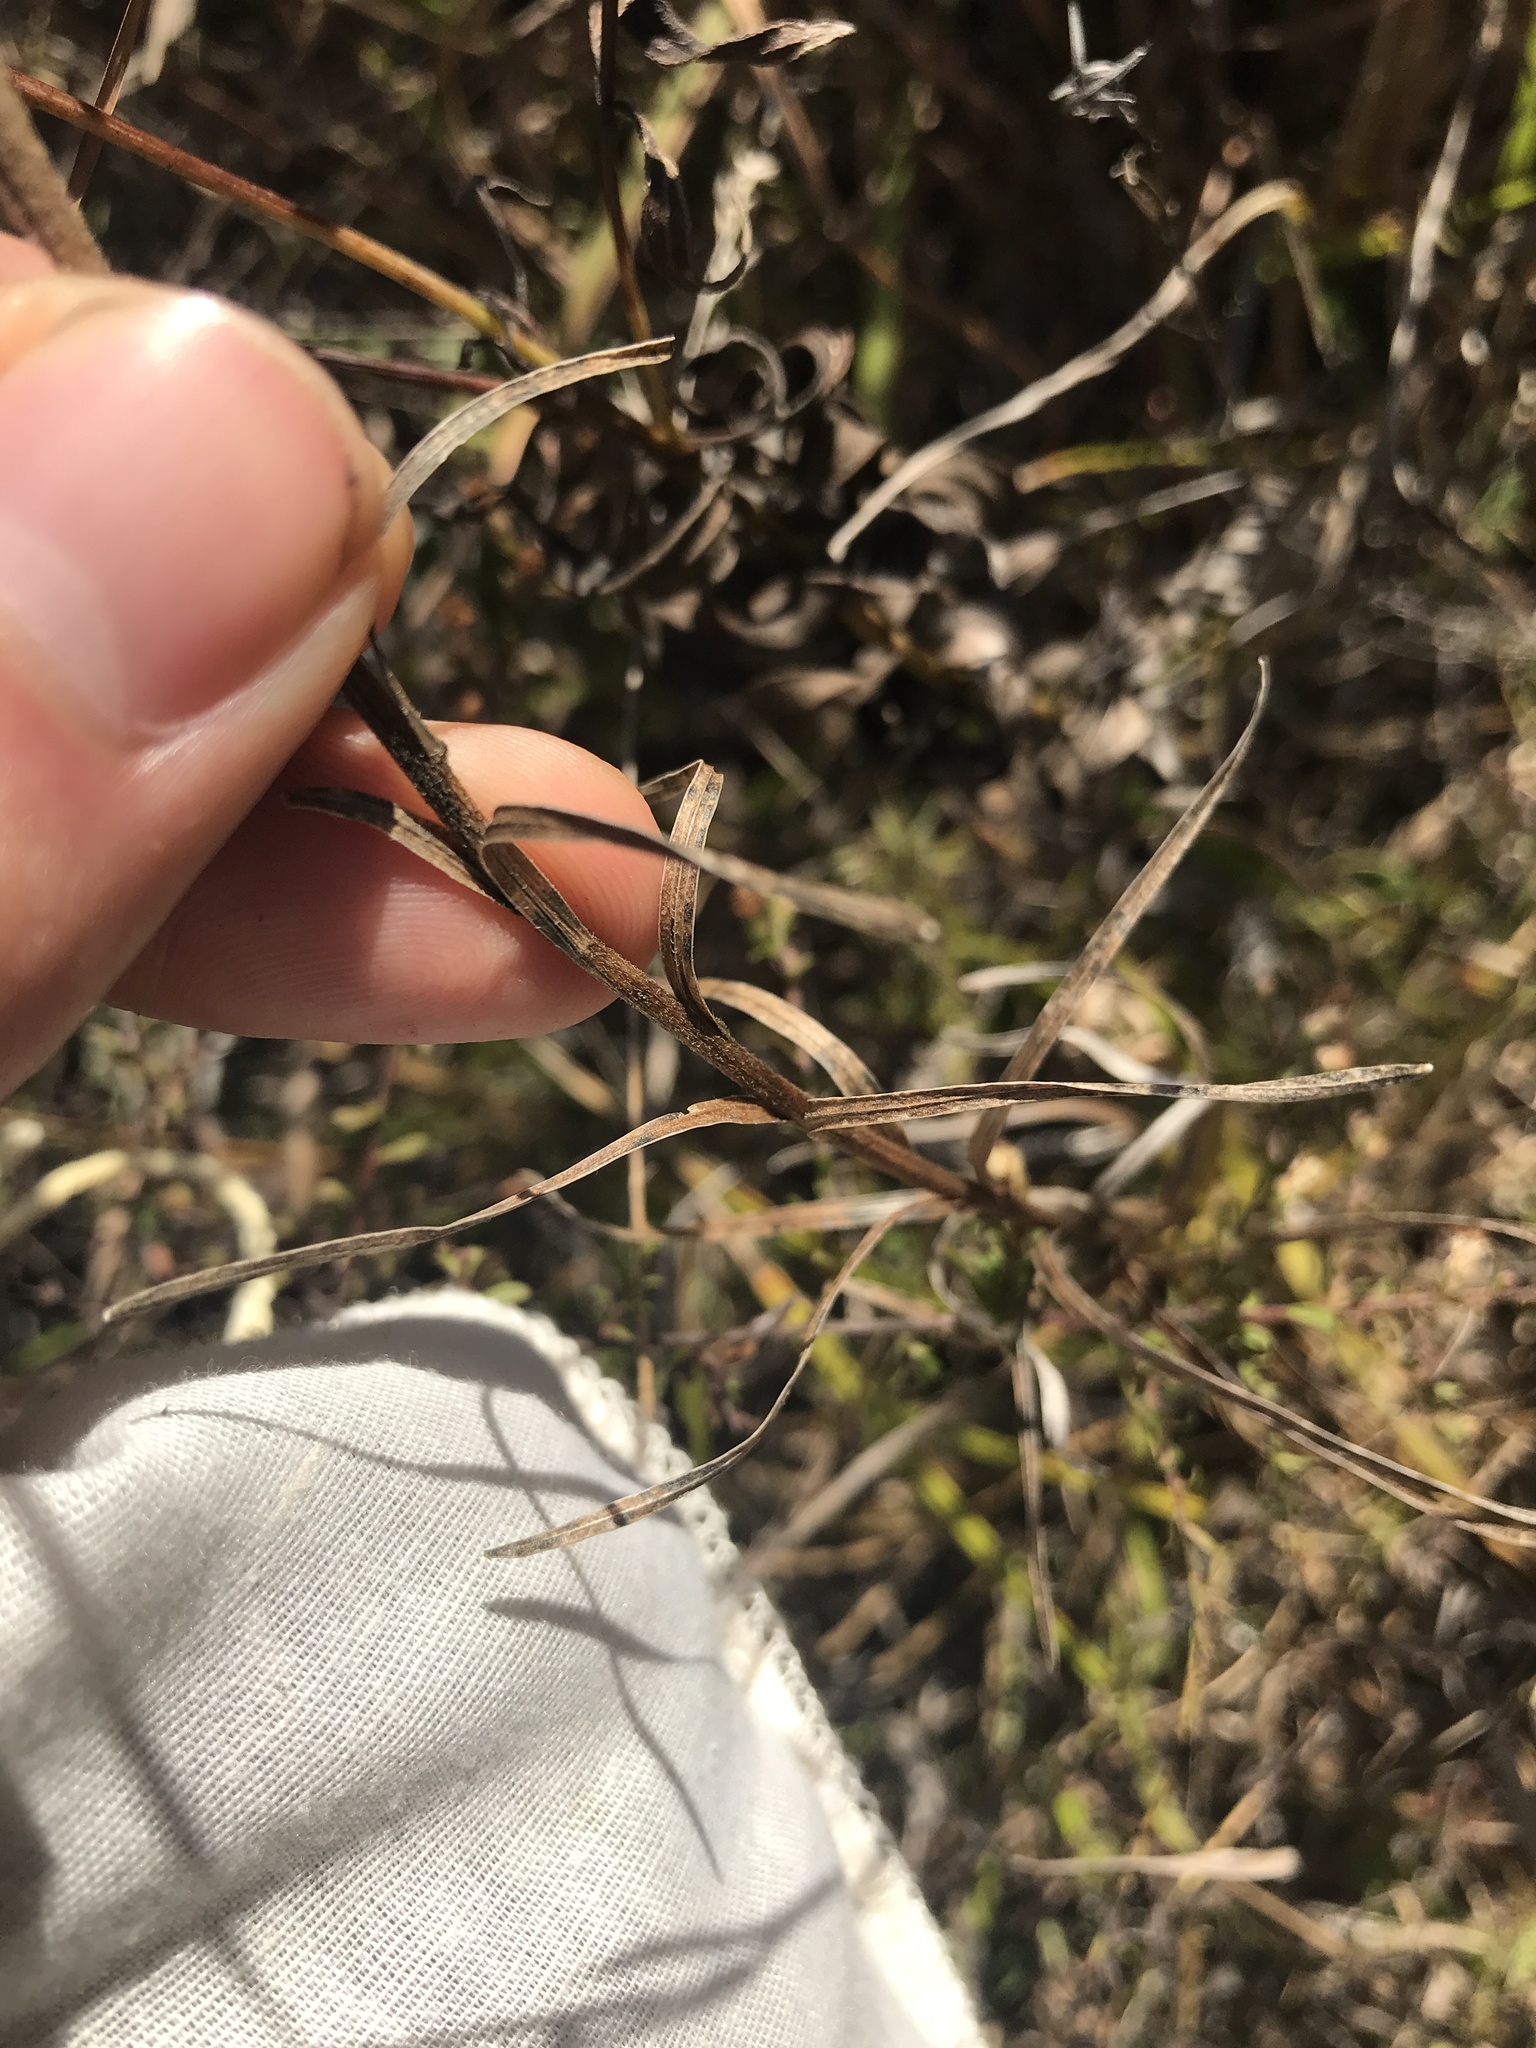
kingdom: Plantae
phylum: Tracheophyta
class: Magnoliopsida
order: Asterales
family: Asteraceae
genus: Liatris
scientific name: Liatris squarrosa
